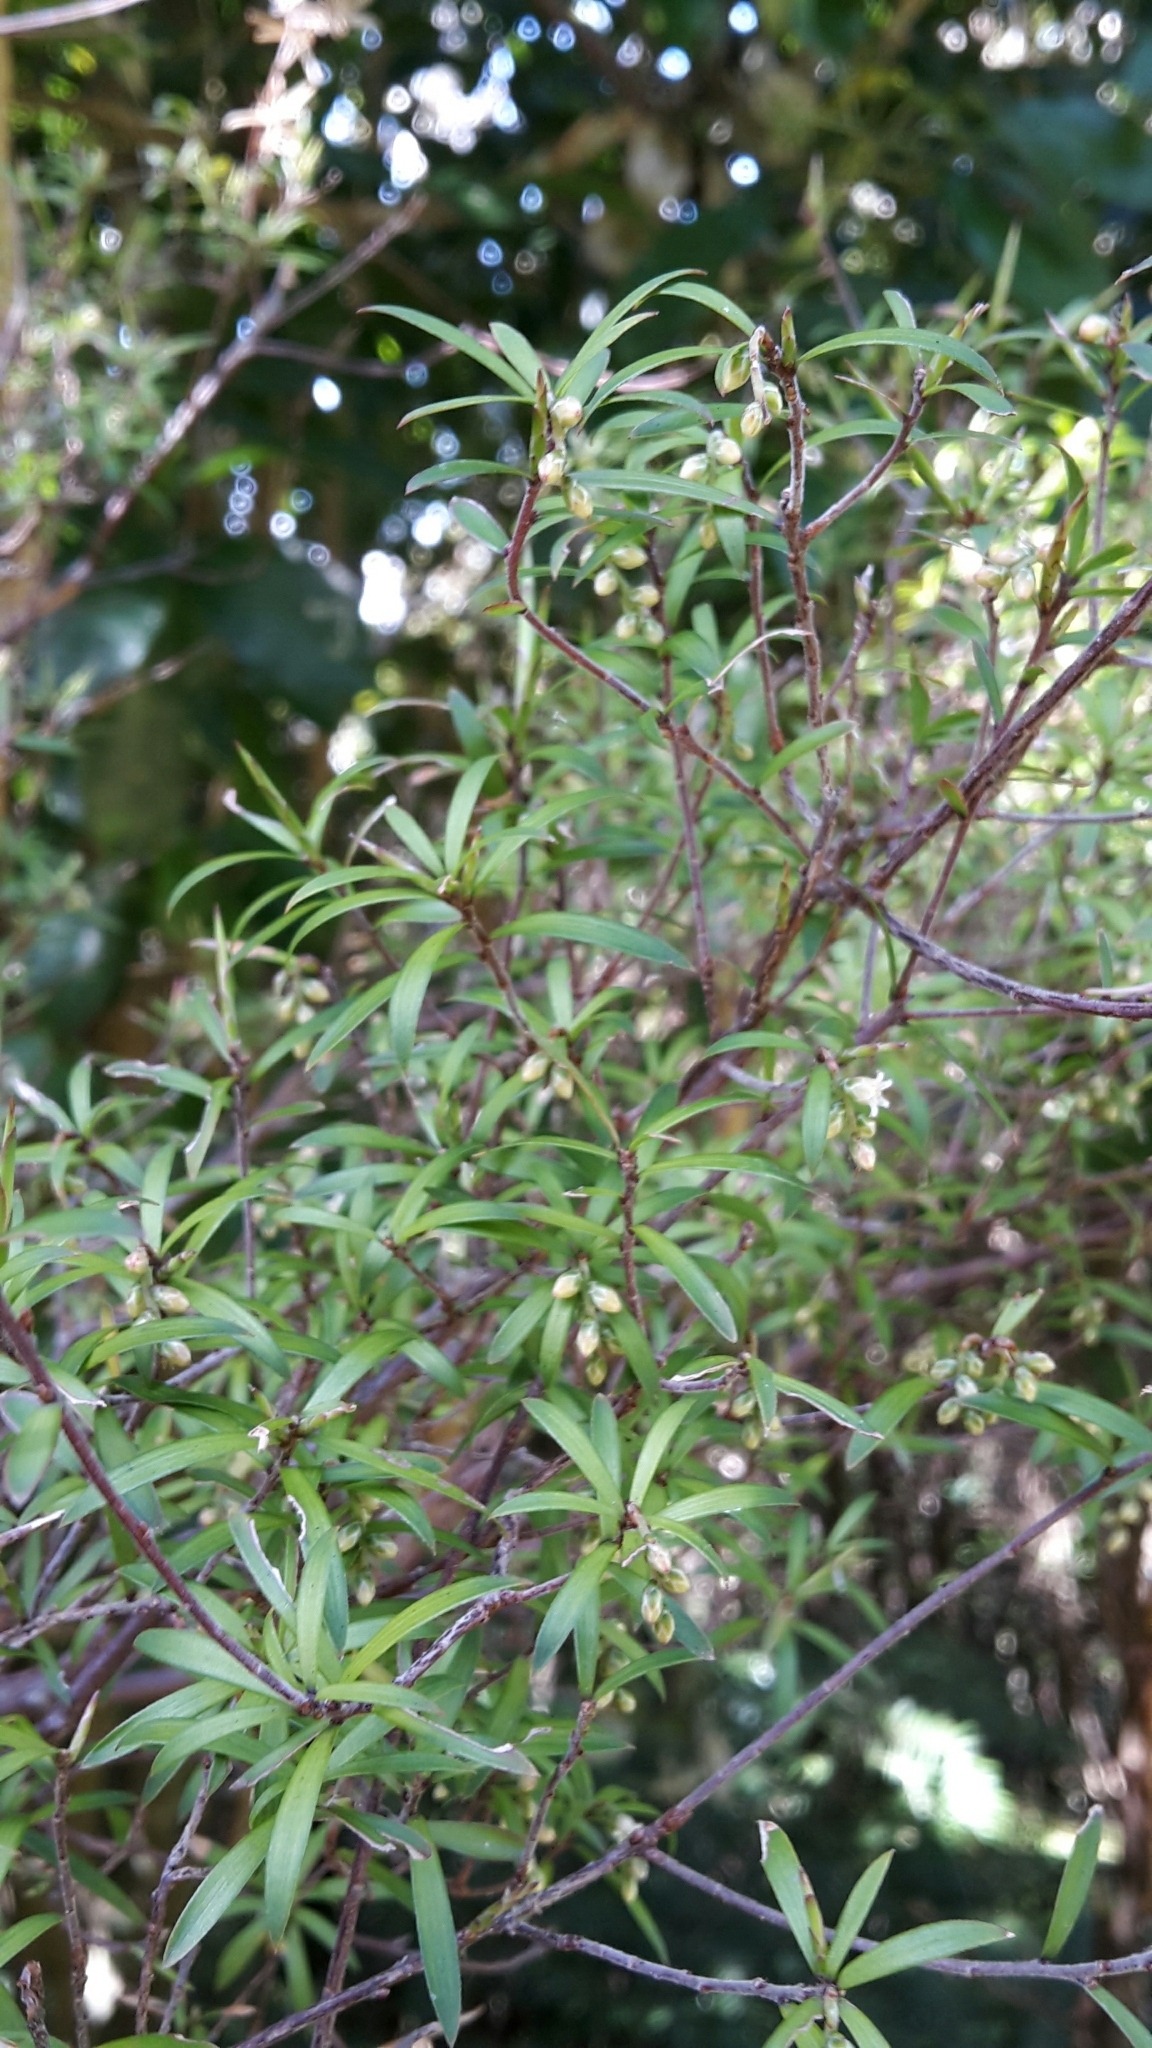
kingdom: Plantae
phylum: Tracheophyta
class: Magnoliopsida
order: Ericales
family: Ericaceae
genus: Leucopogon
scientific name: Leucopogon fasciculatus
